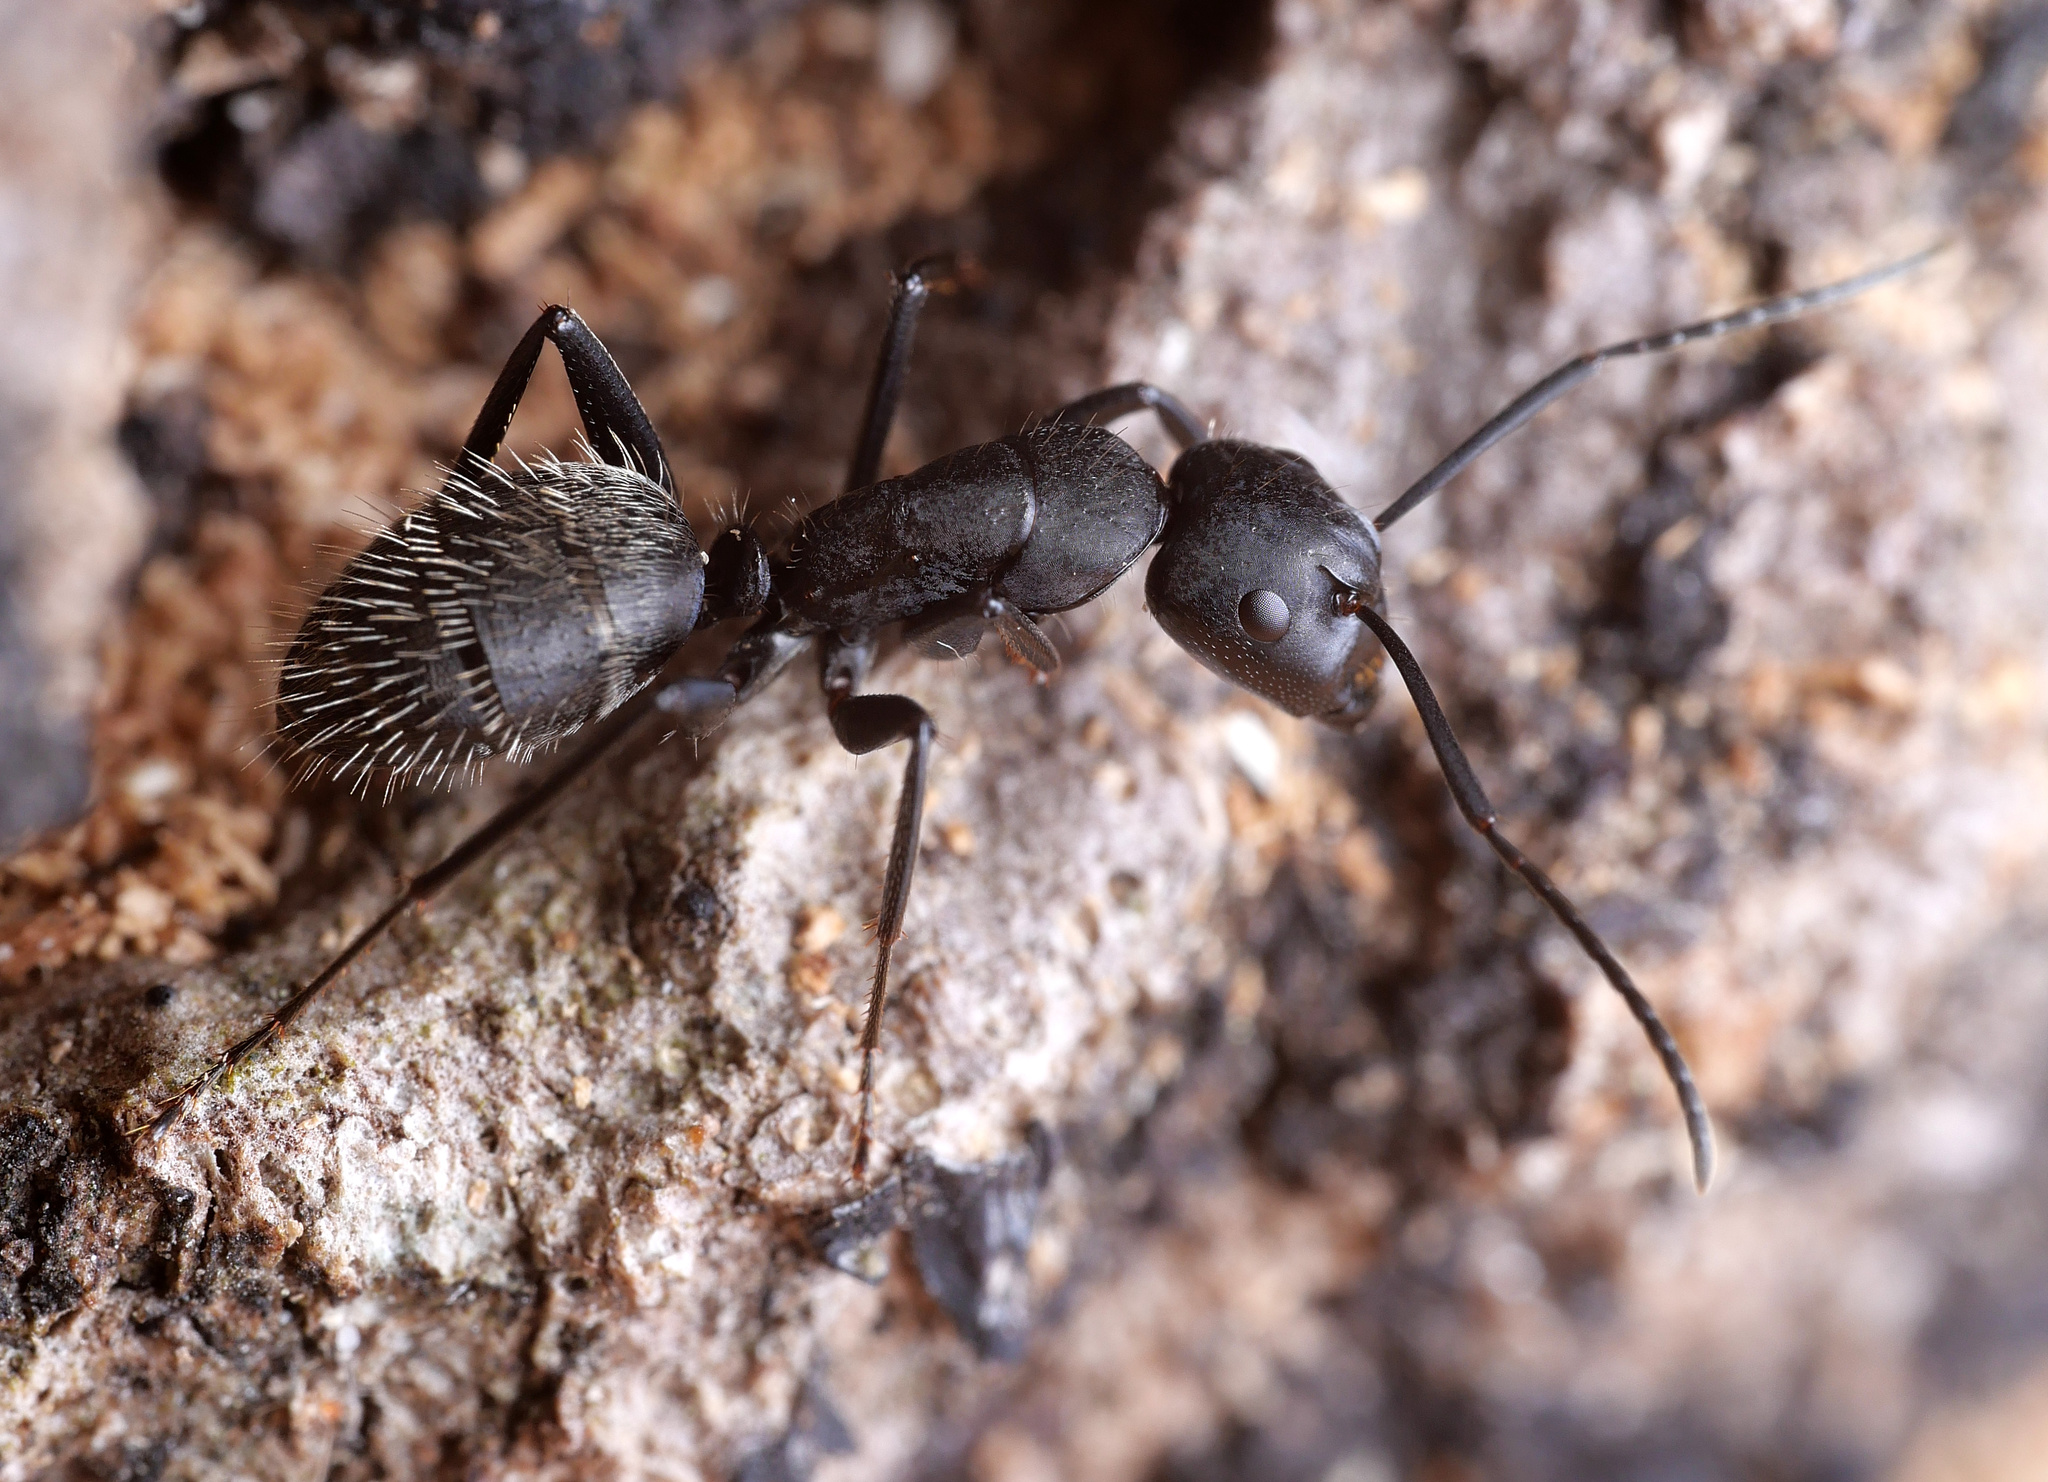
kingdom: Animalia
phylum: Arthropoda
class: Insecta
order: Hymenoptera
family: Formicidae
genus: Camponotus
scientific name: Camponotus vagus
